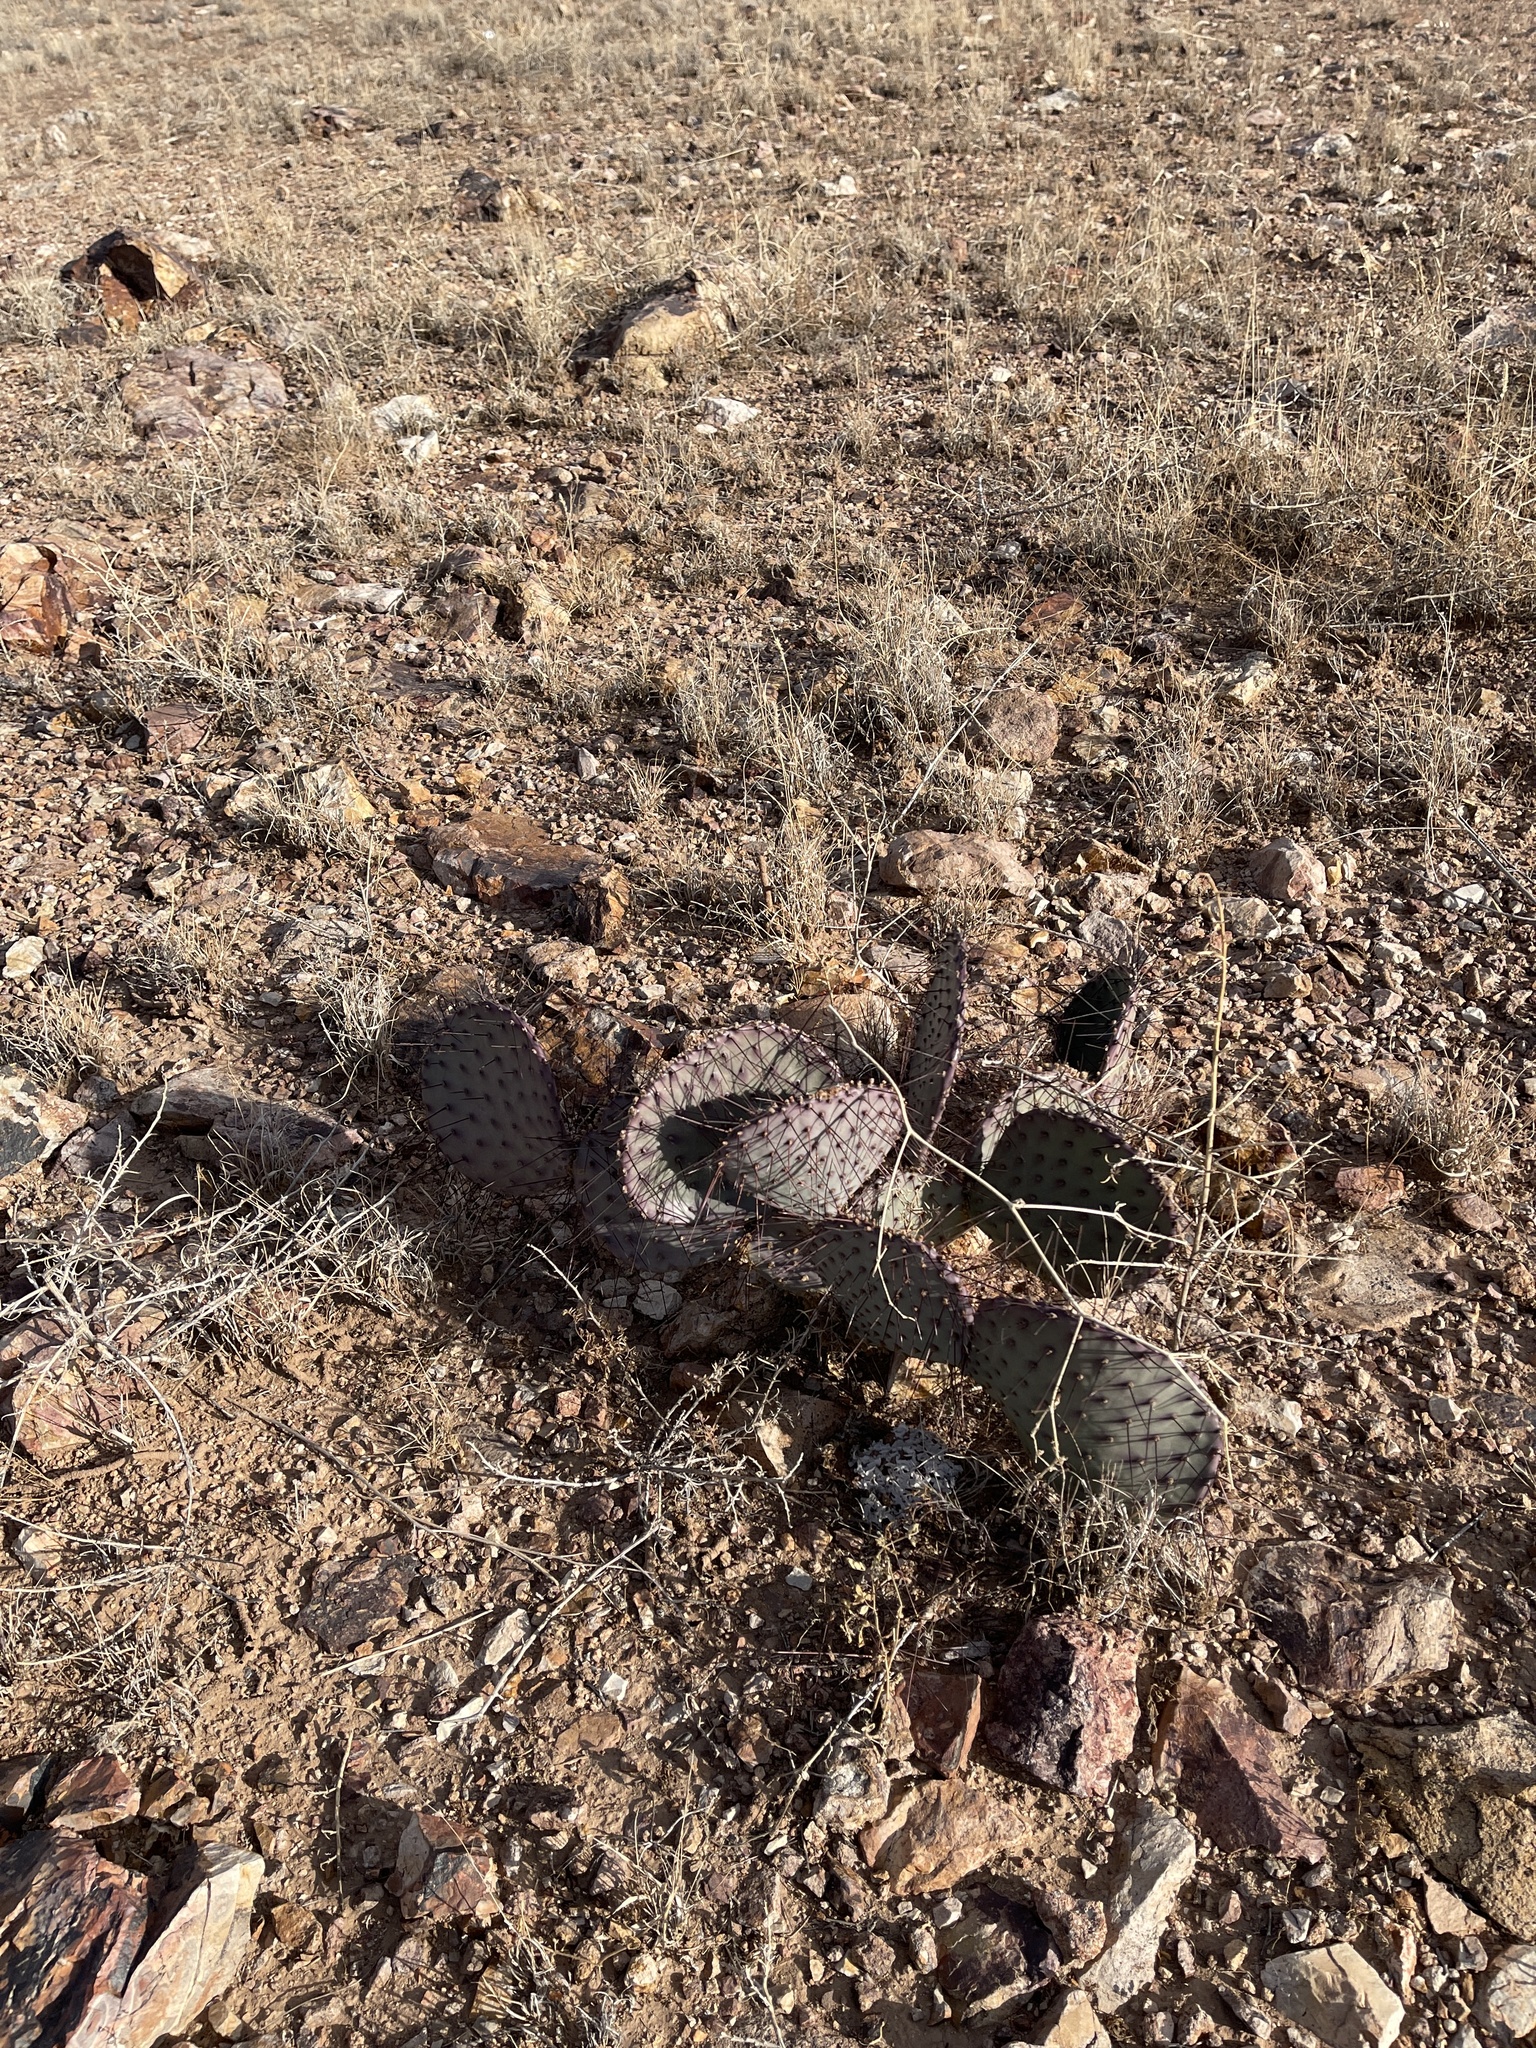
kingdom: Plantae
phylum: Tracheophyta
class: Magnoliopsida
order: Caryophyllales
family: Cactaceae
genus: Opuntia
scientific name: Opuntia macrocentra
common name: Purple prickly-pear
